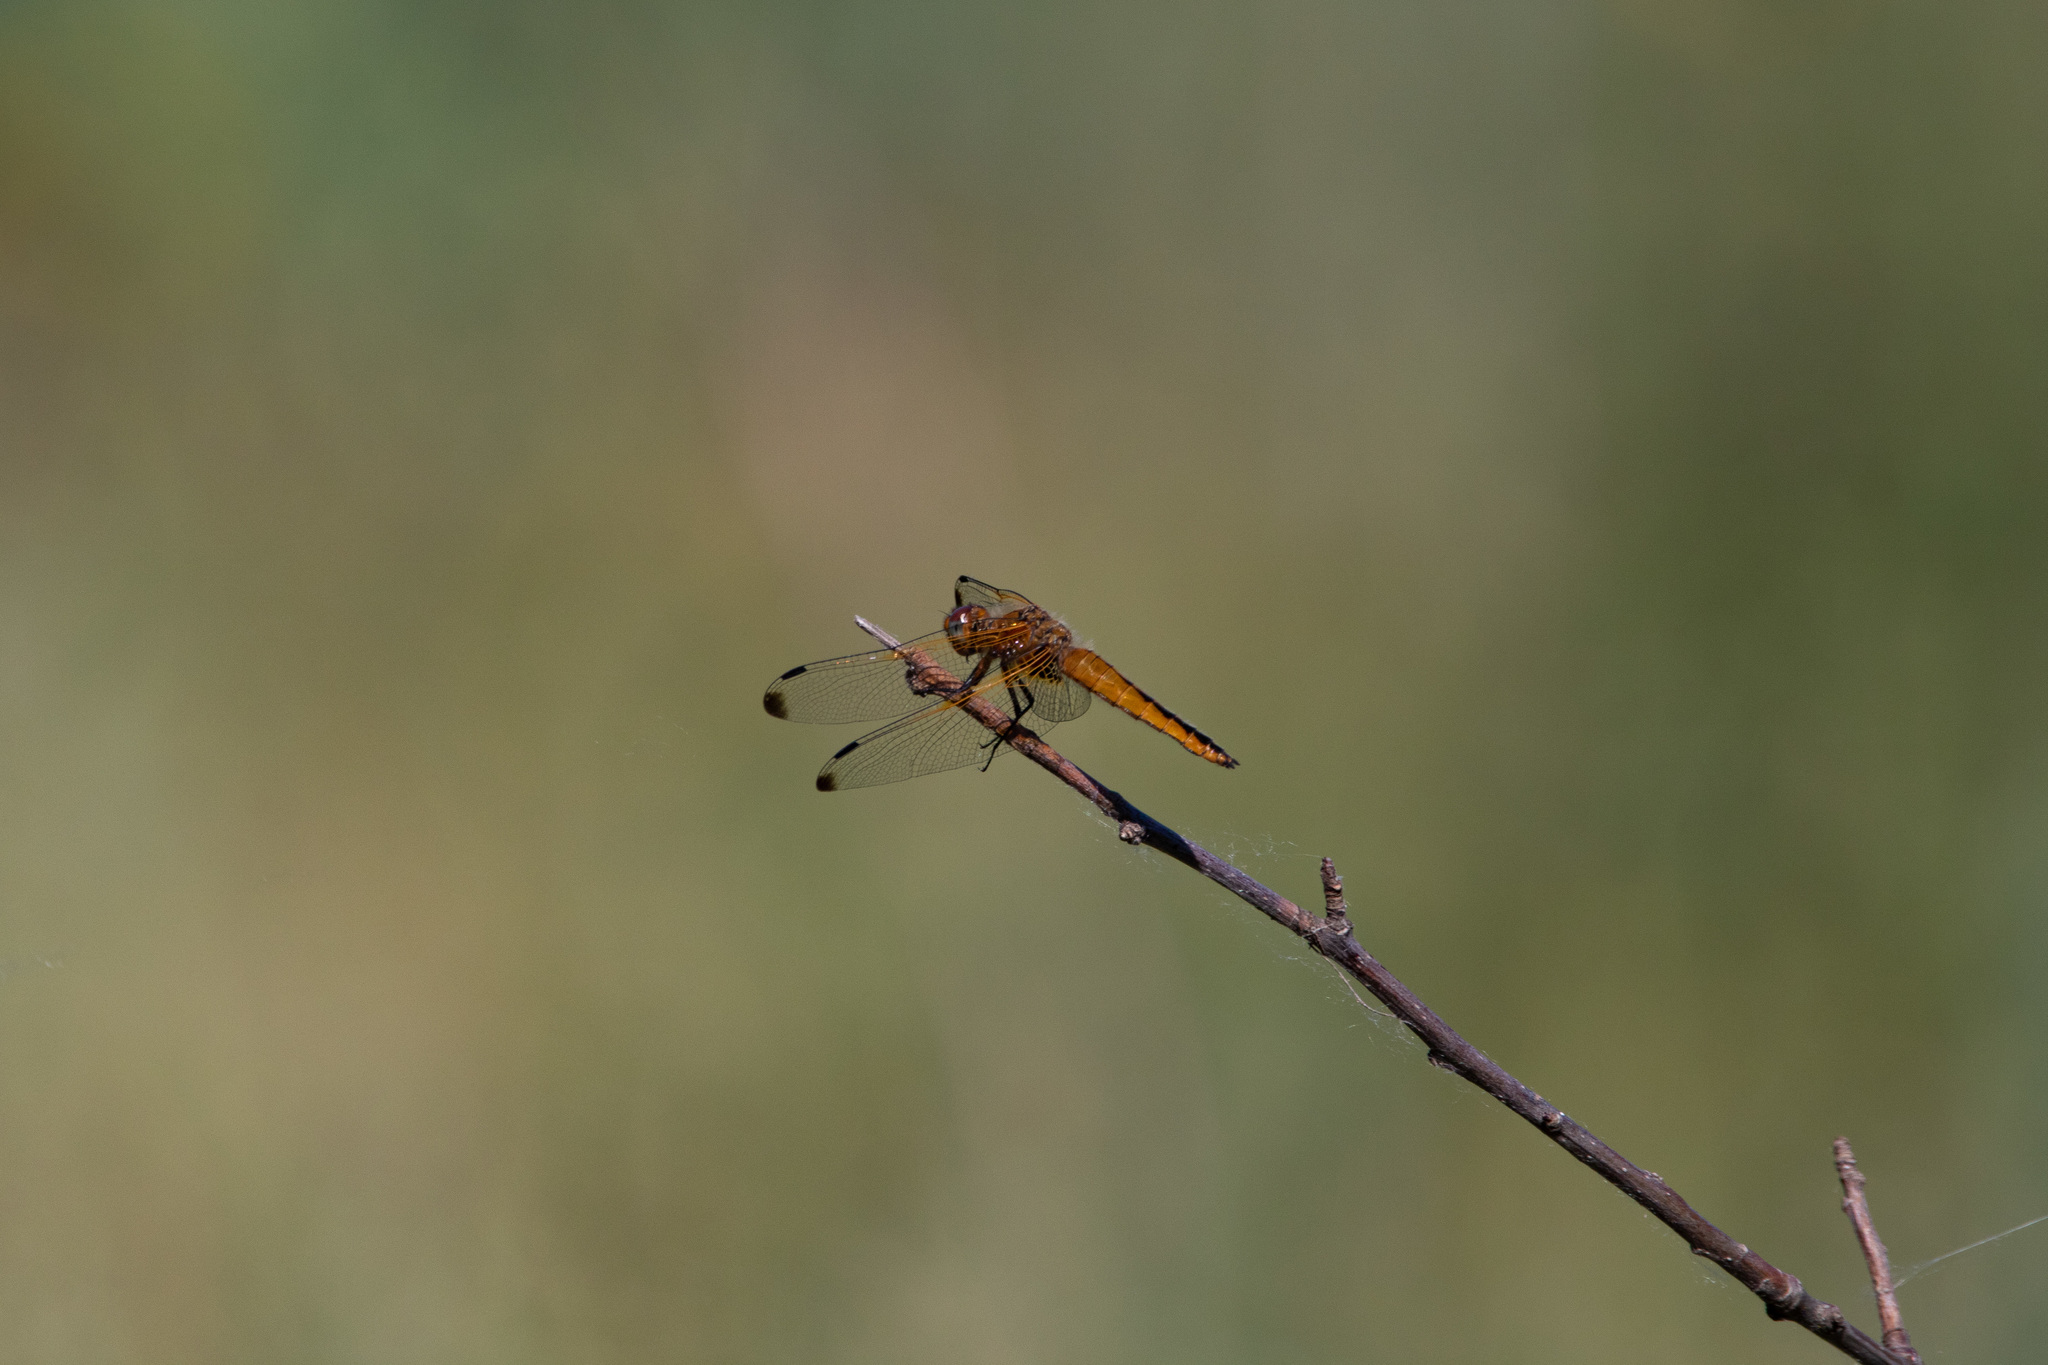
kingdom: Animalia
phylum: Arthropoda
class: Insecta
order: Odonata
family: Libellulidae
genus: Libellula
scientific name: Libellula fulva
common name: Blue chaser
